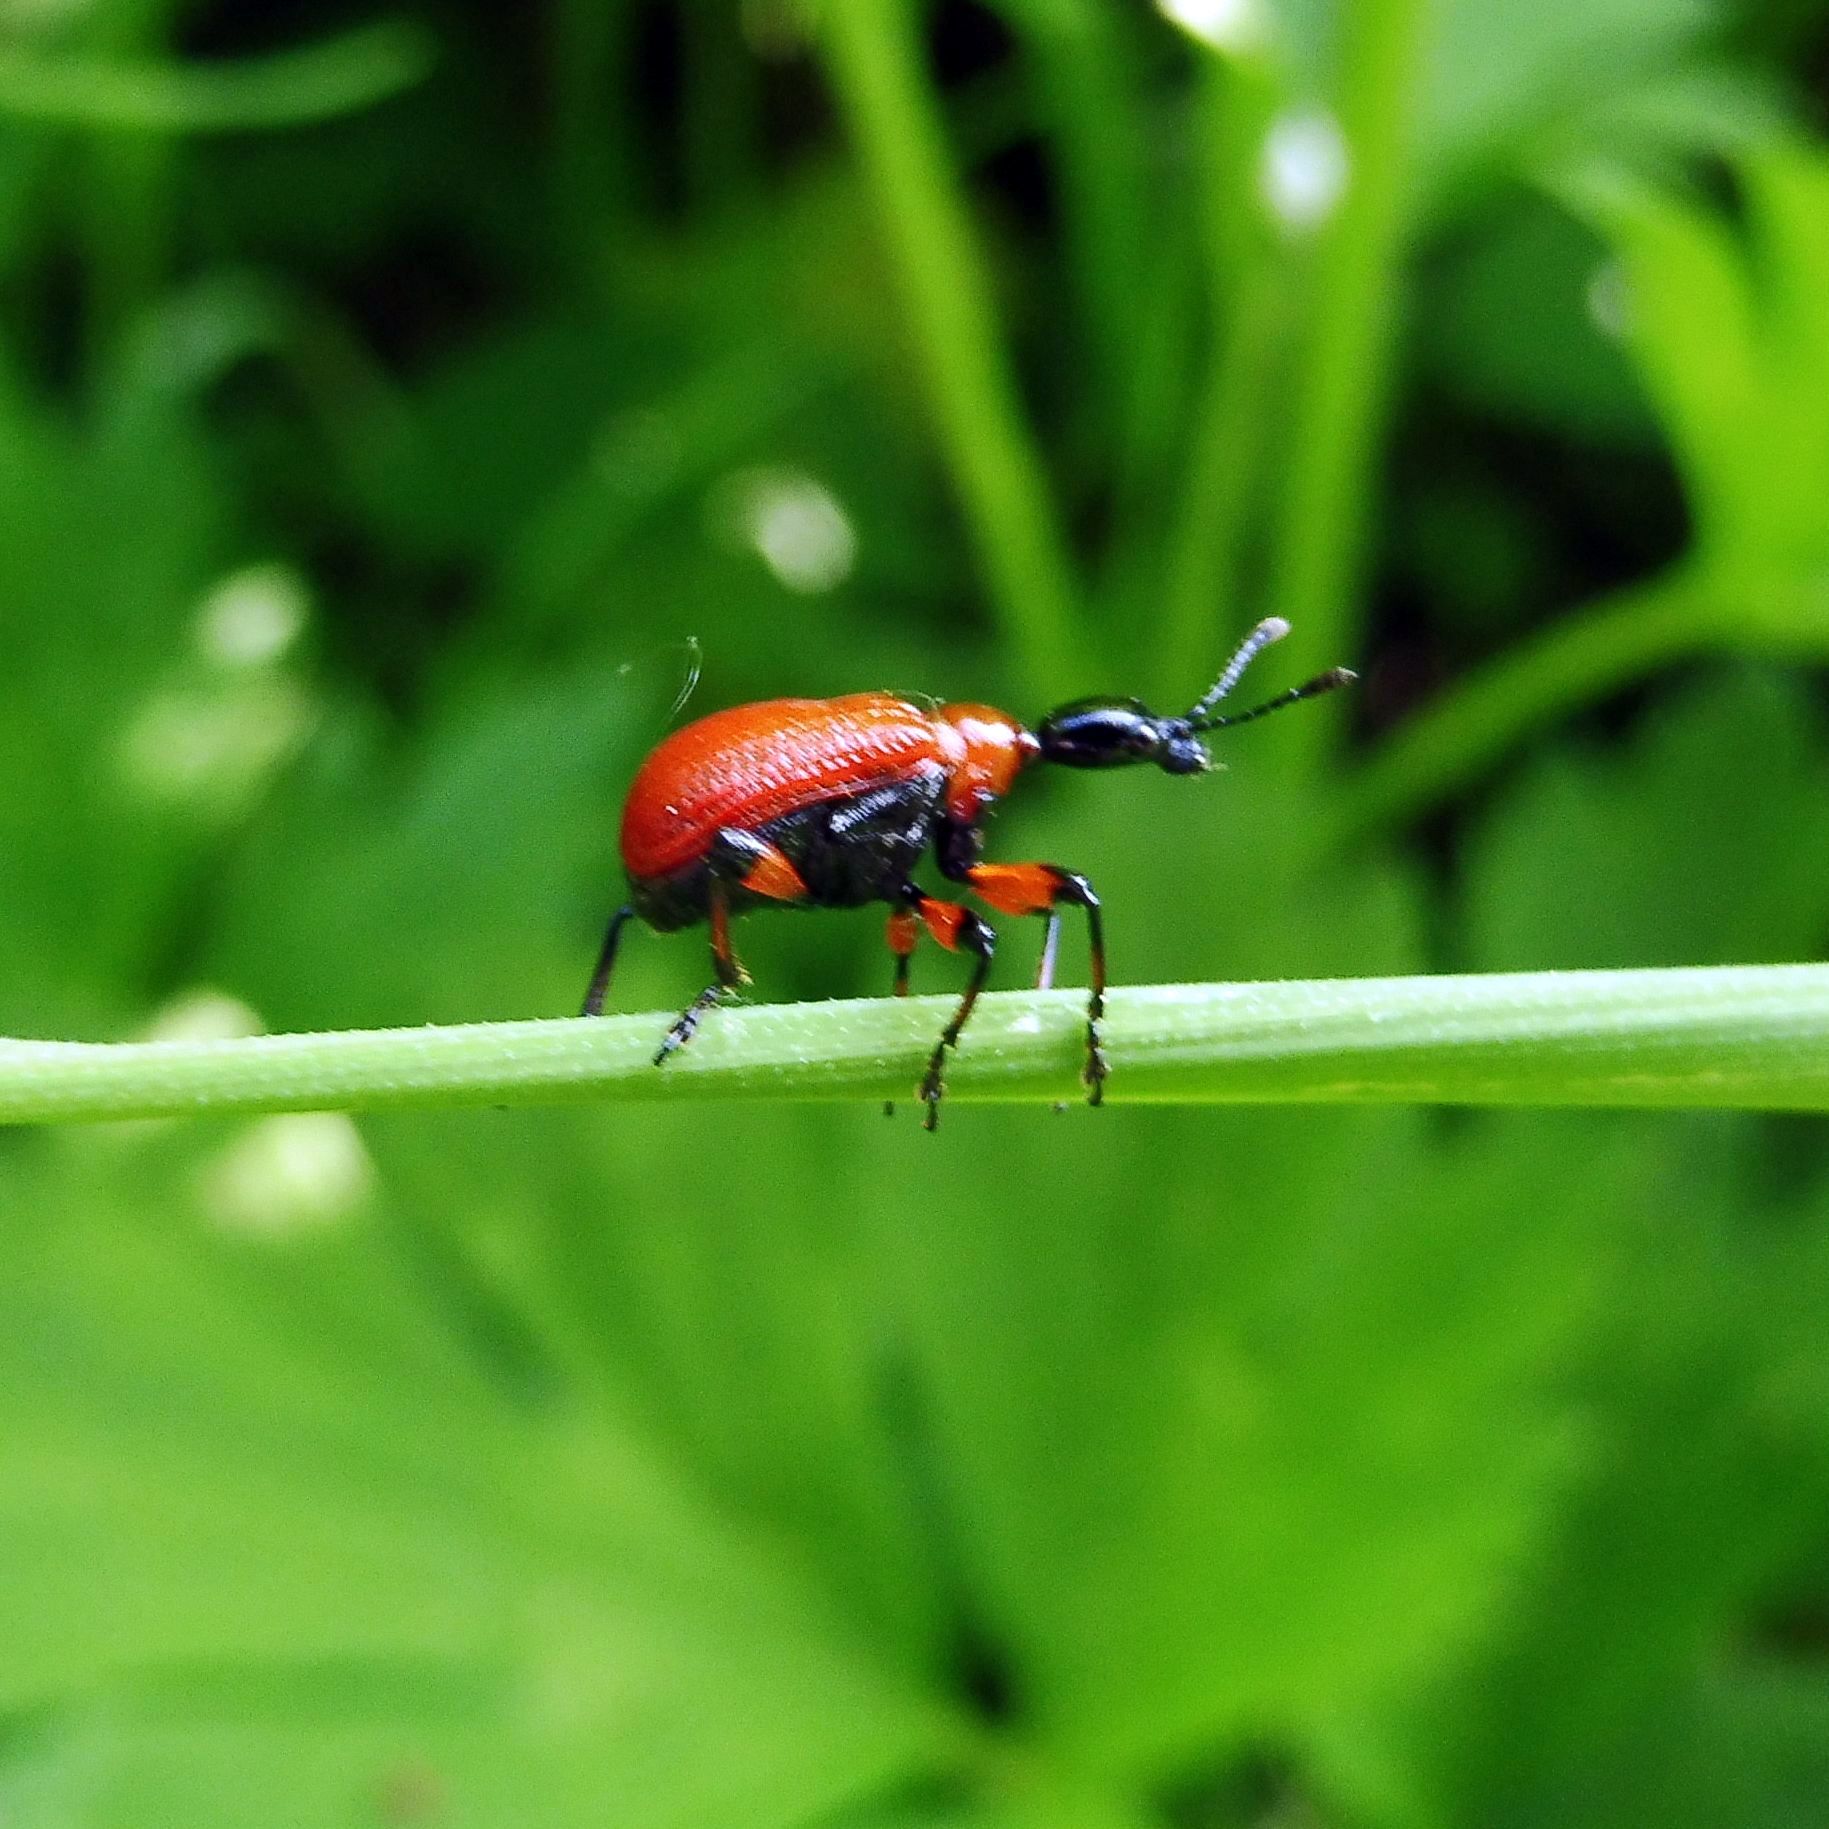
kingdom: Animalia
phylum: Arthropoda
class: Insecta
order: Coleoptera
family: Attelabidae
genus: Apoderus
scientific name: Apoderus coryli
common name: Hazel leaf roller
